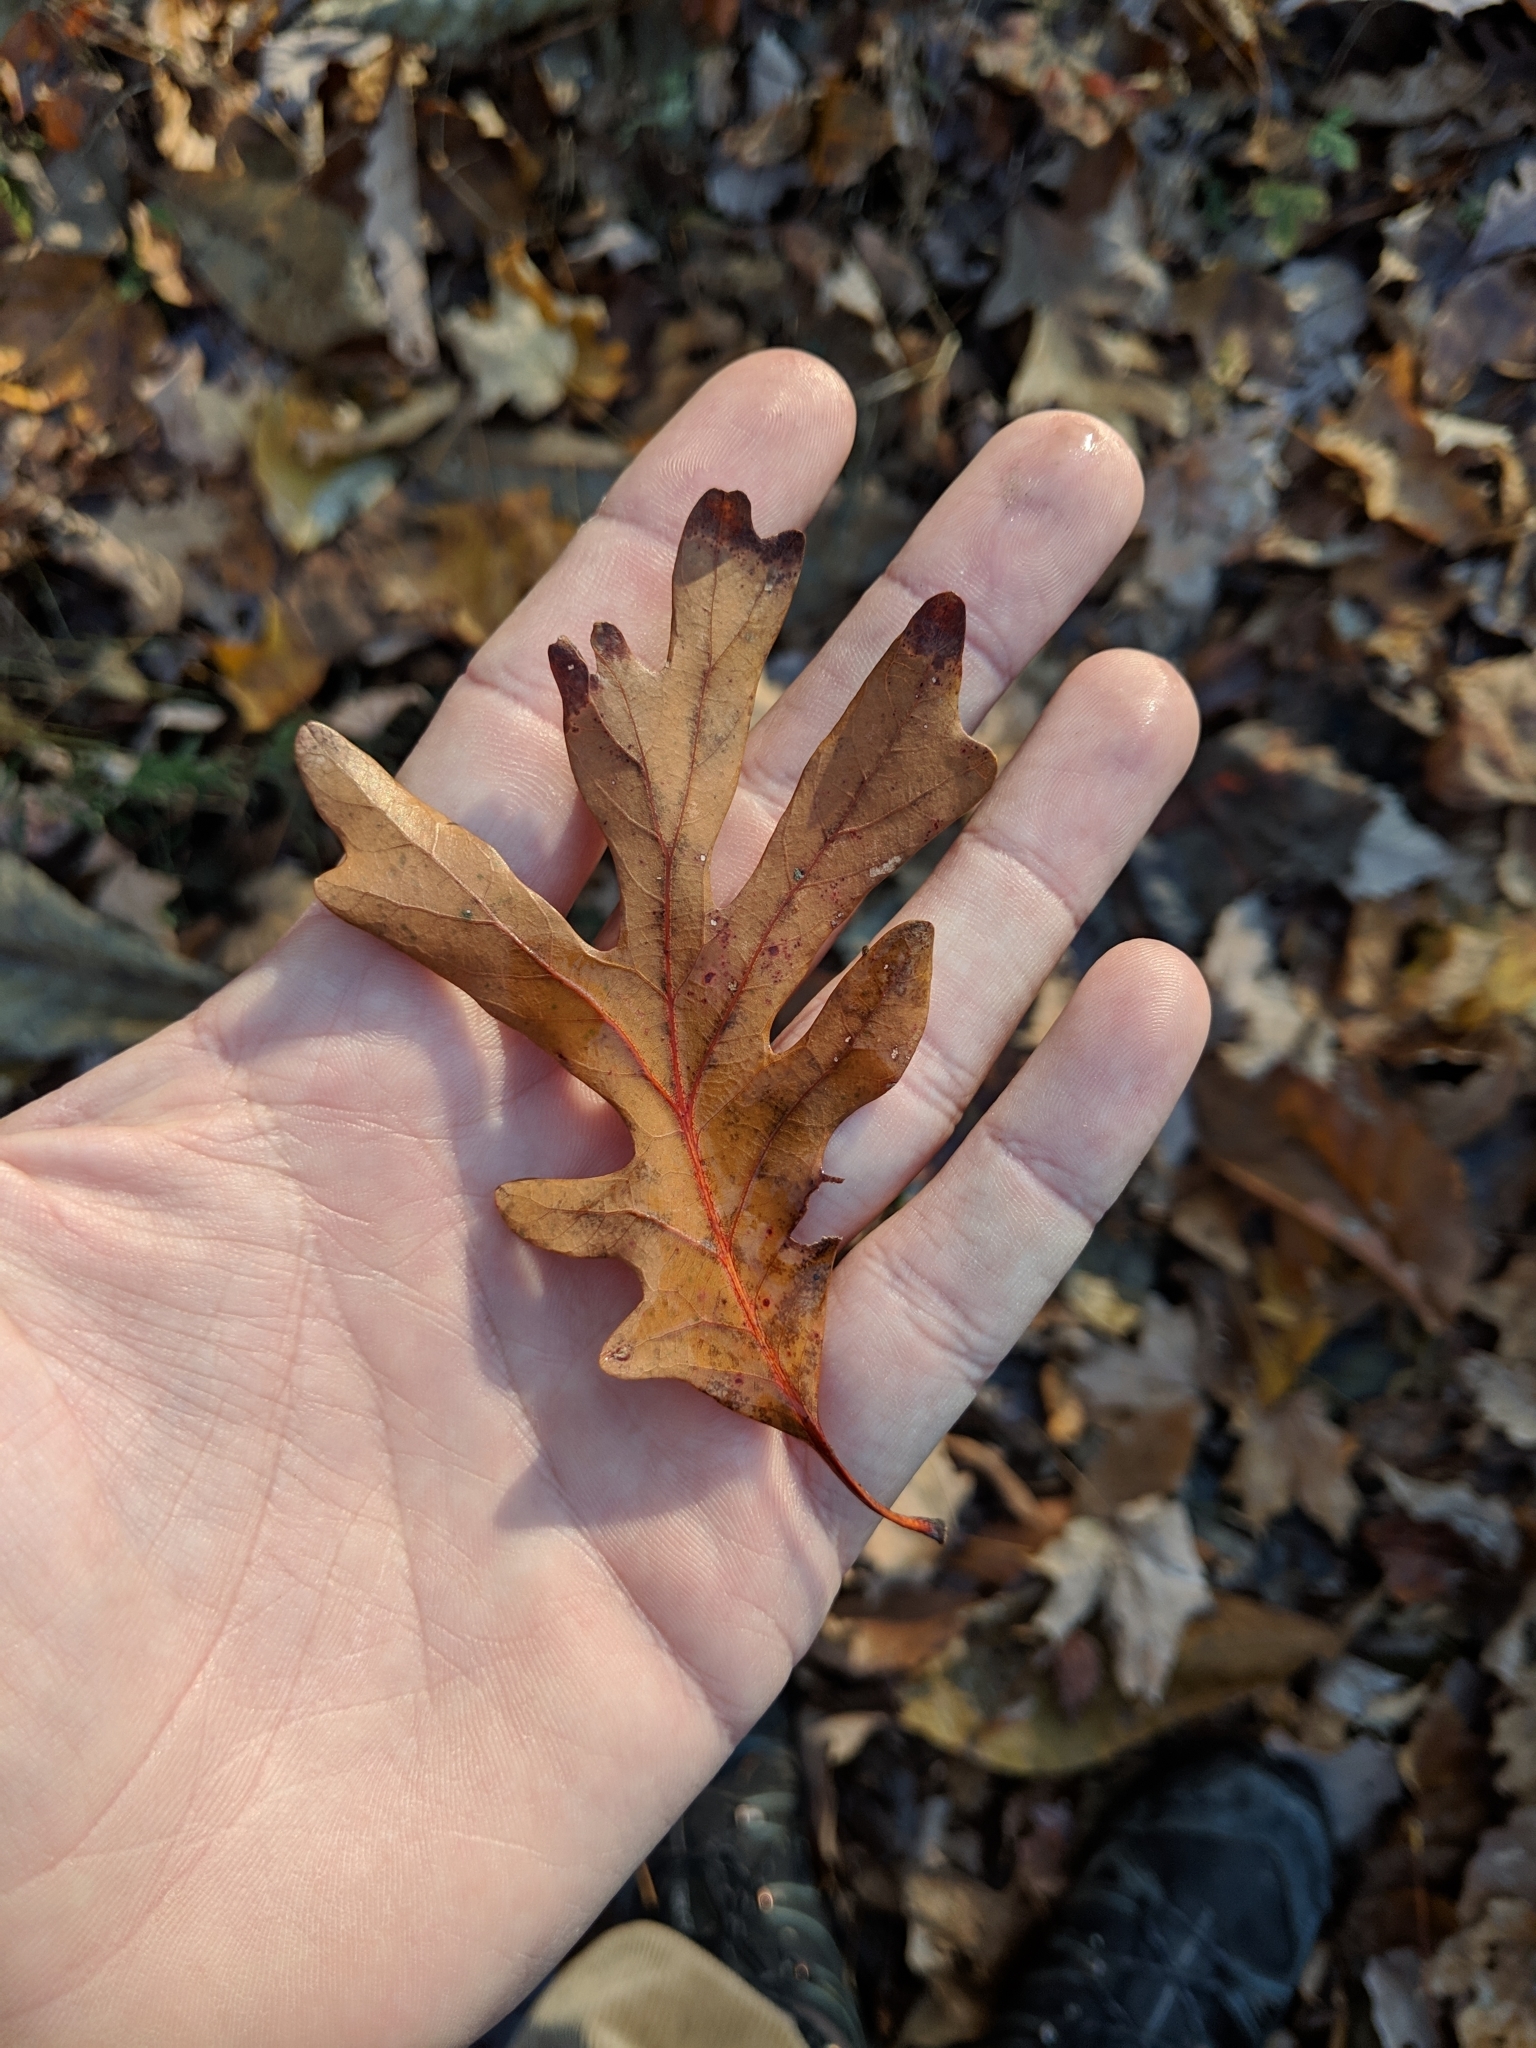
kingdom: Plantae
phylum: Tracheophyta
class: Magnoliopsida
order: Fagales
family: Fagaceae
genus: Quercus
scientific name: Quercus alba
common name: White oak
